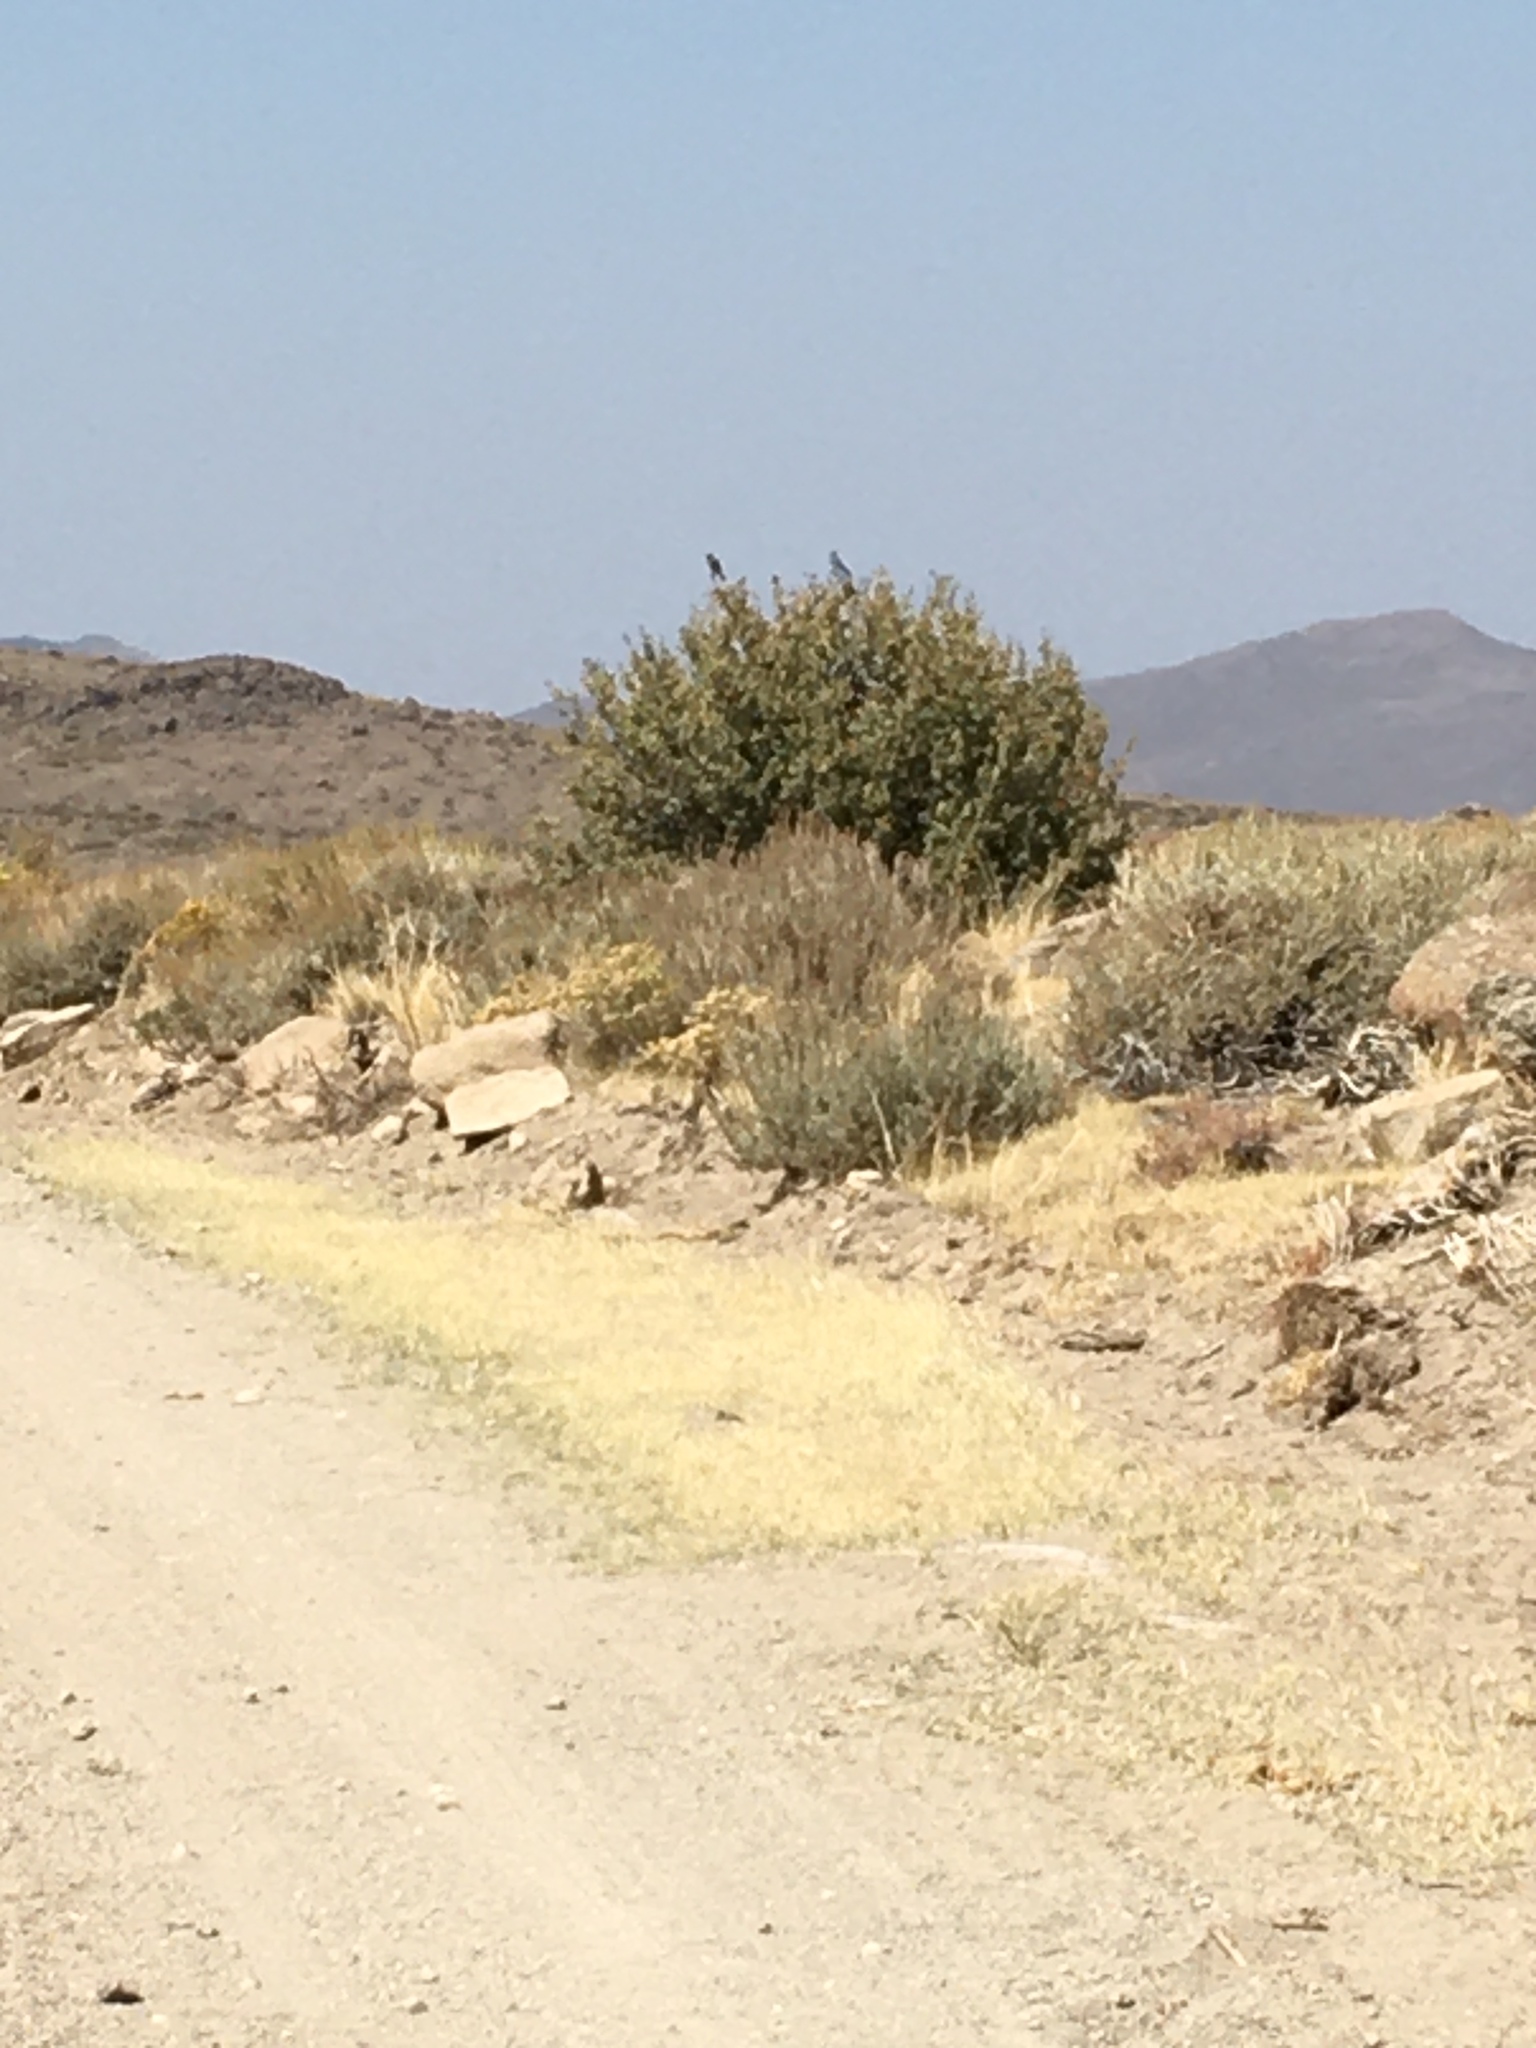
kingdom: Animalia
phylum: Chordata
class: Aves
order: Passeriformes
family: Turdidae
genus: Sialia
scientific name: Sialia currucoides
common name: Mountain bluebird
